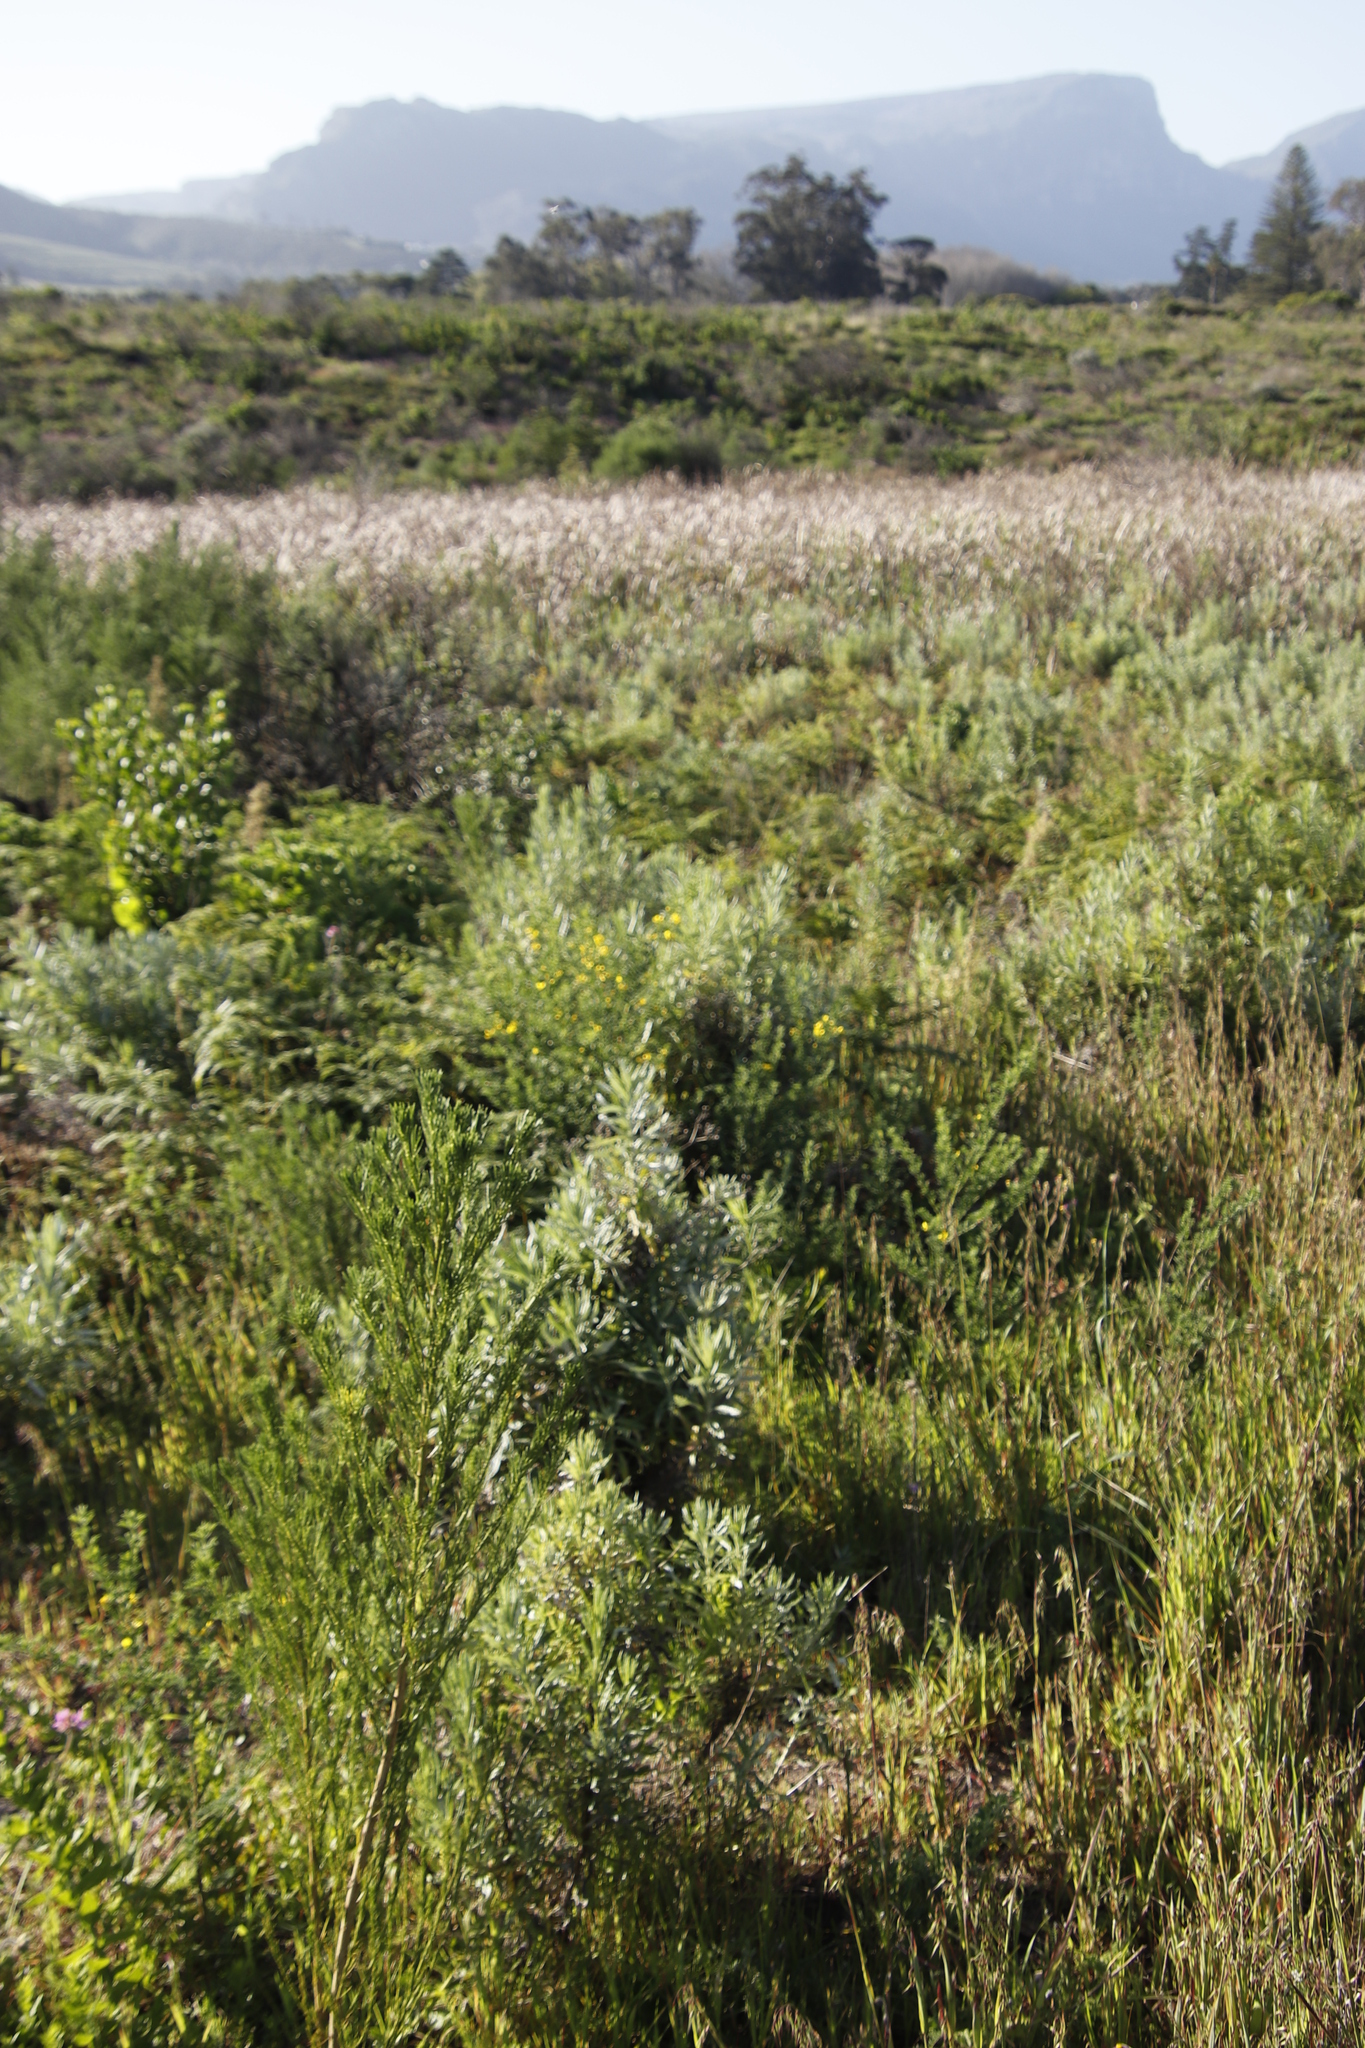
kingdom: Plantae
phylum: Tracheophyta
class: Magnoliopsida
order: Fabales
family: Fabaceae
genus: Genista
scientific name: Genista monspessulana
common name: Montpellier broom
